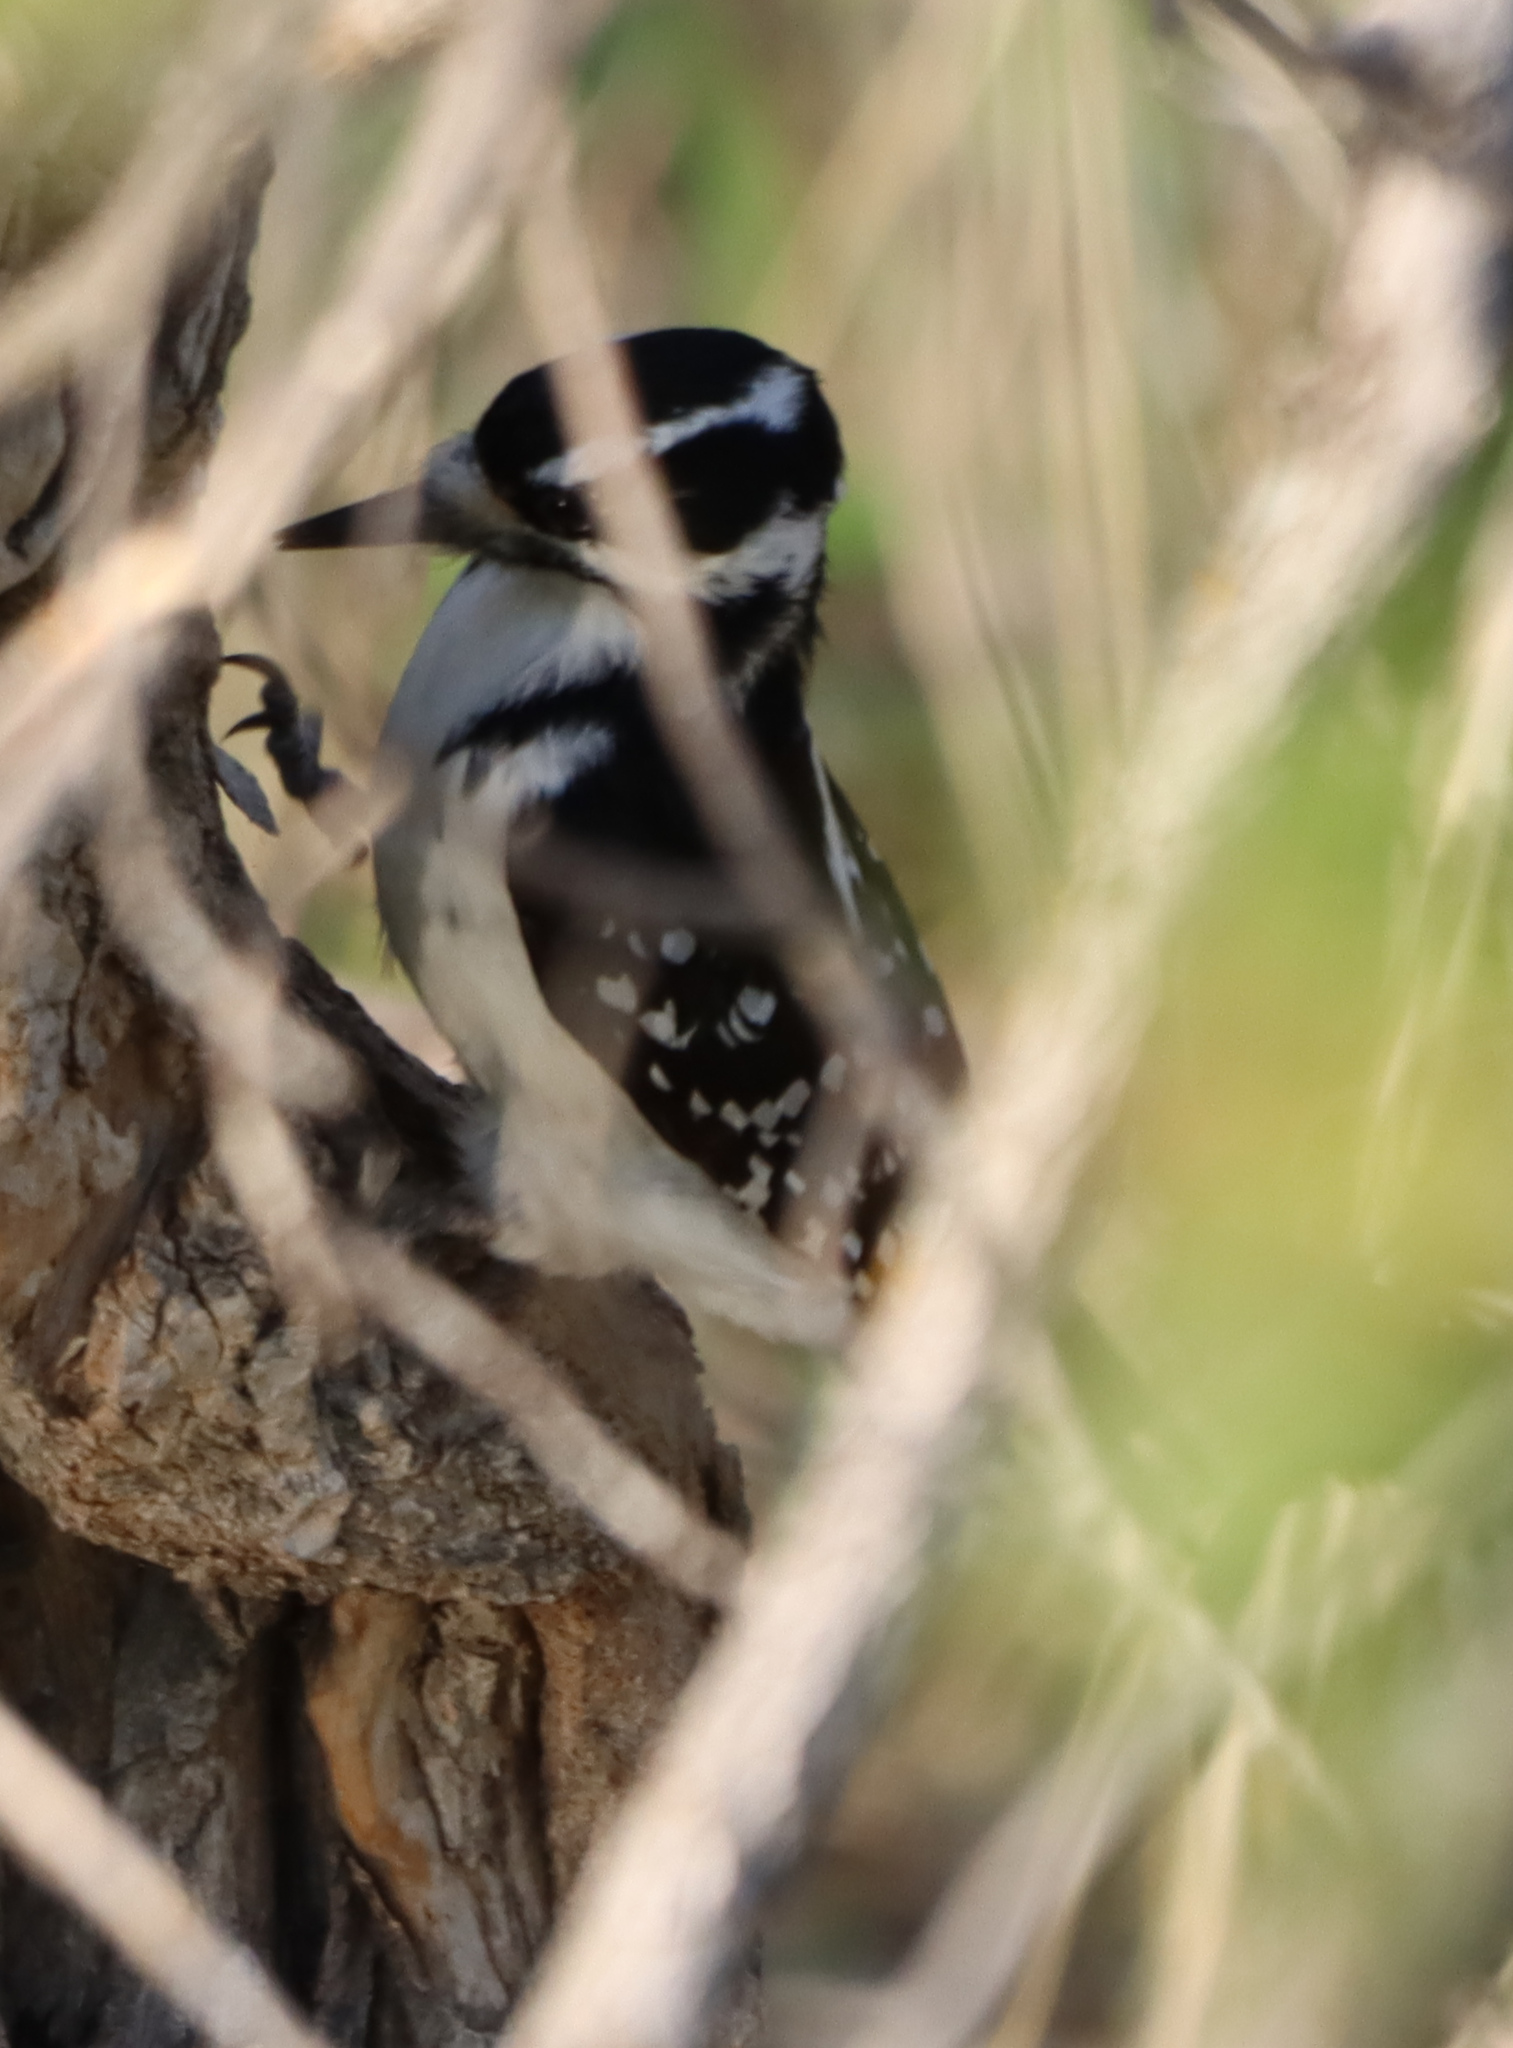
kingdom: Animalia
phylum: Chordata
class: Aves
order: Piciformes
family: Picidae
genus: Leuconotopicus
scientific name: Leuconotopicus villosus
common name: Hairy woodpecker
